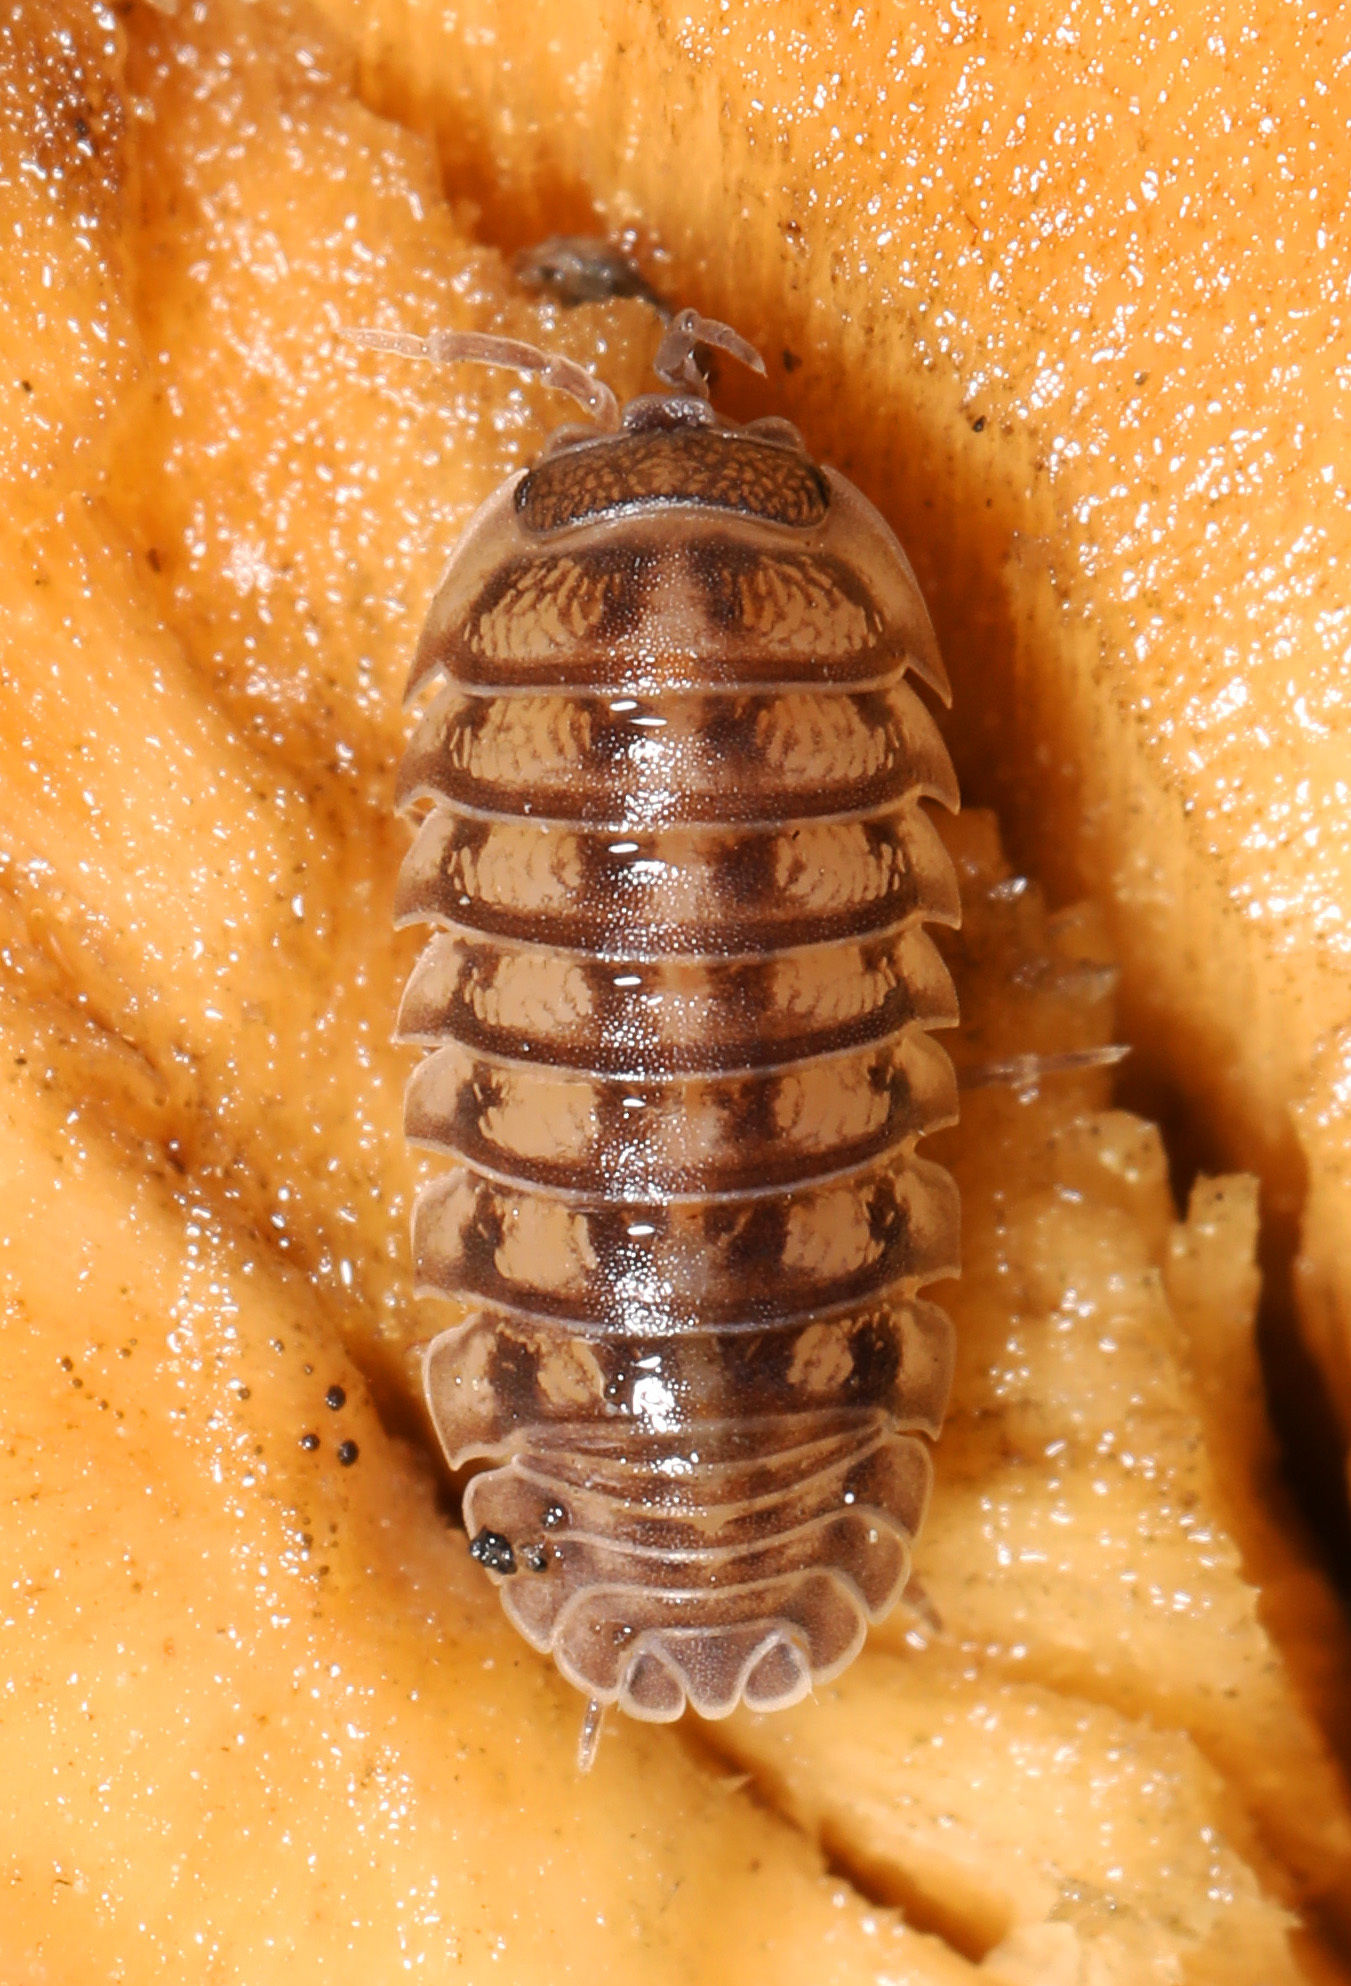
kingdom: Animalia
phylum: Arthropoda
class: Malacostraca
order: Isopoda
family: Armadillidiidae
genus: Armadillidium
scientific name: Armadillidium nasatum
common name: Isopod
